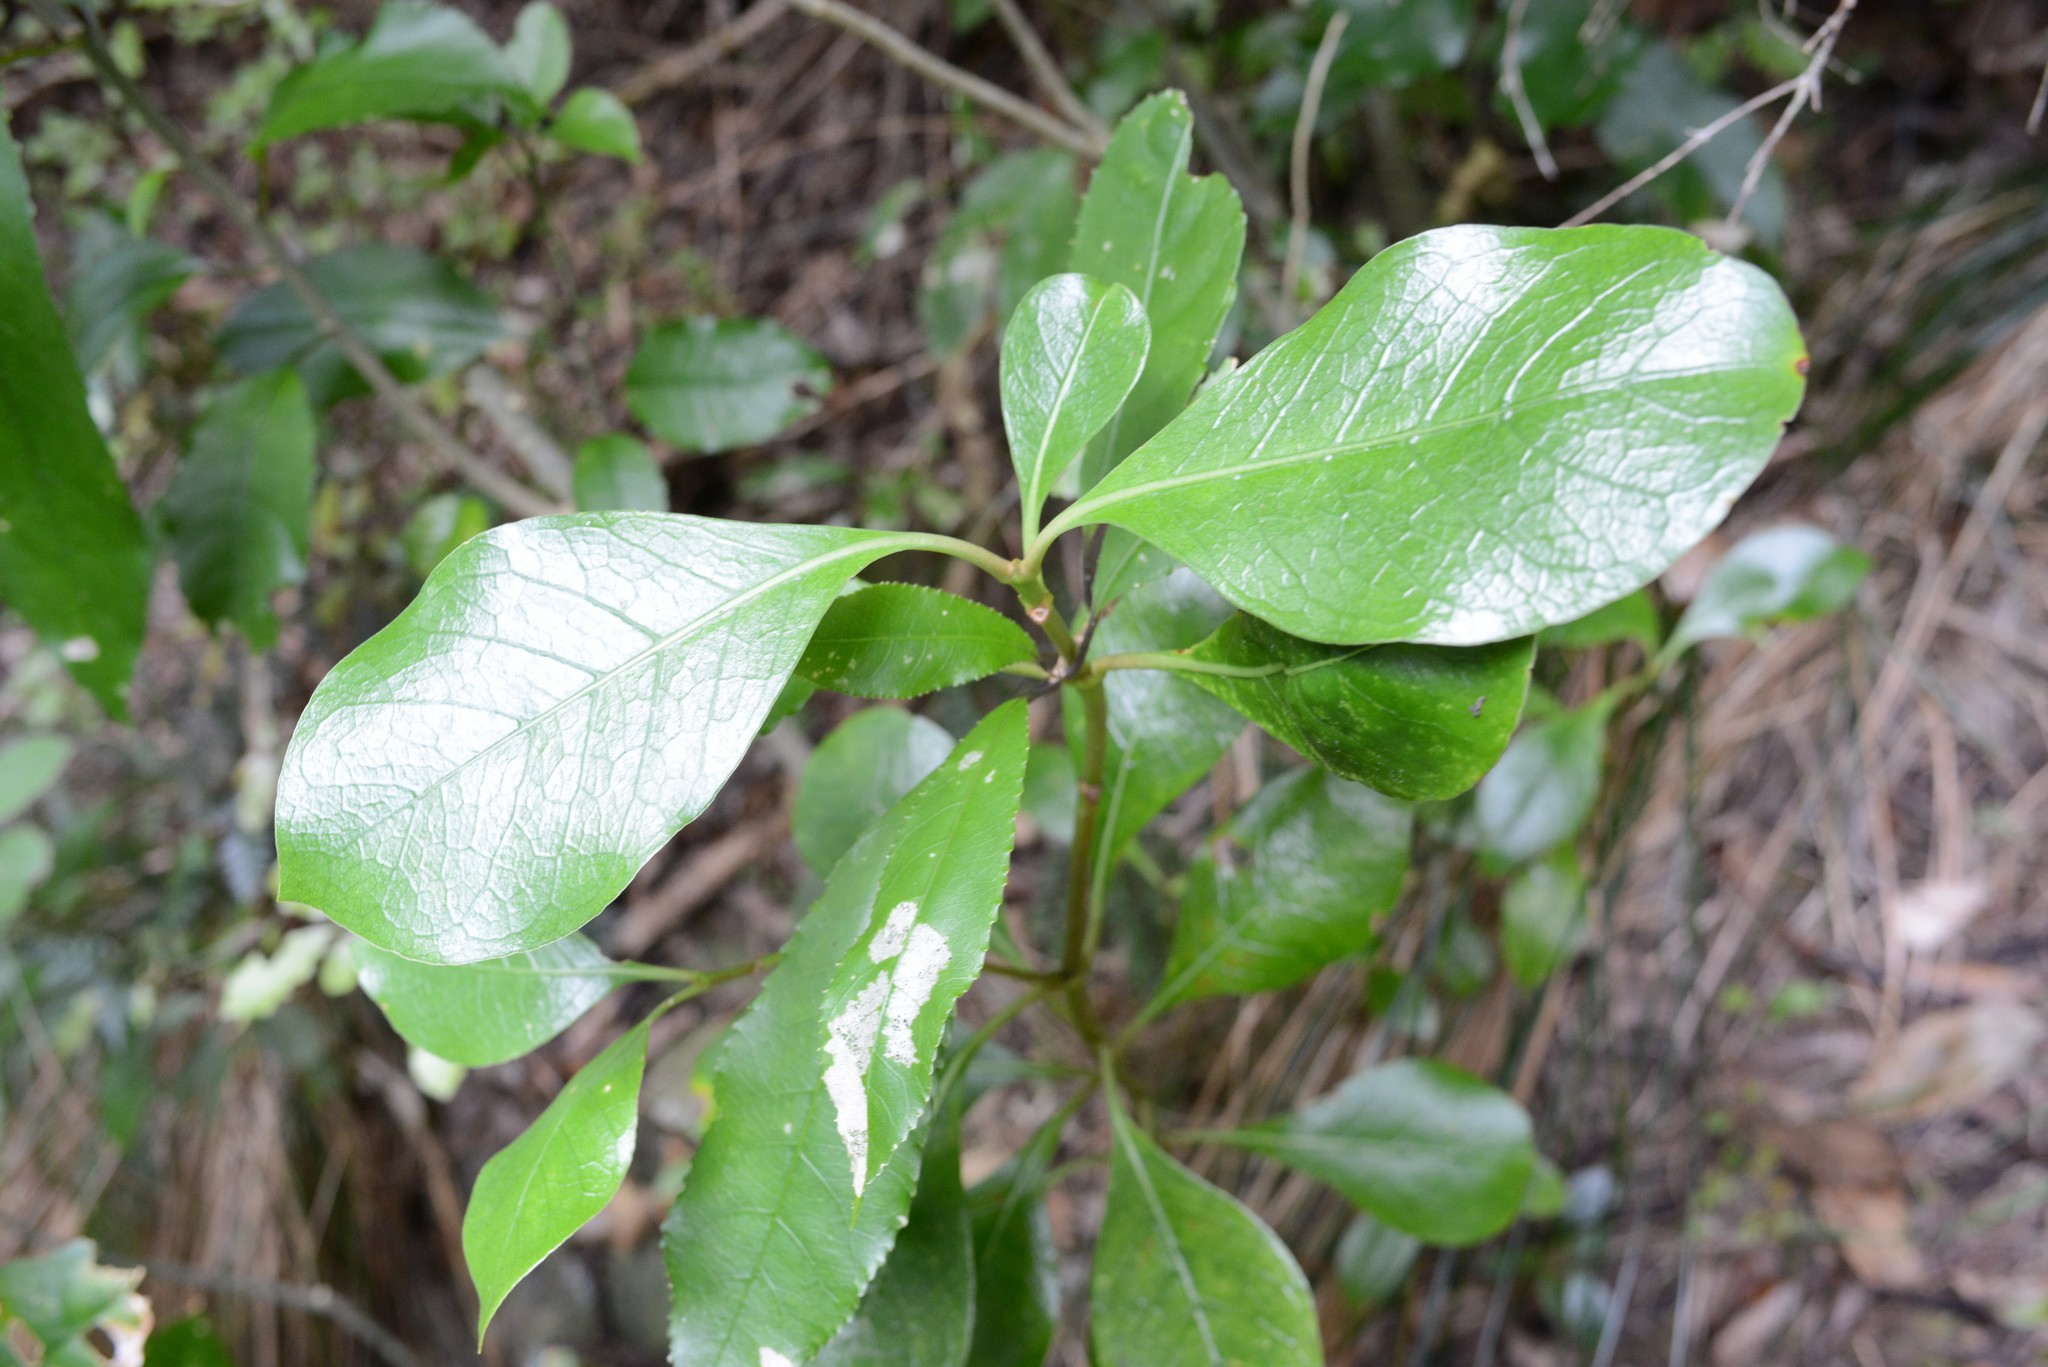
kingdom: Plantae
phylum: Tracheophyta
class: Magnoliopsida
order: Gentianales
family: Rubiaceae
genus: Coprosma
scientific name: Coprosma lucida
